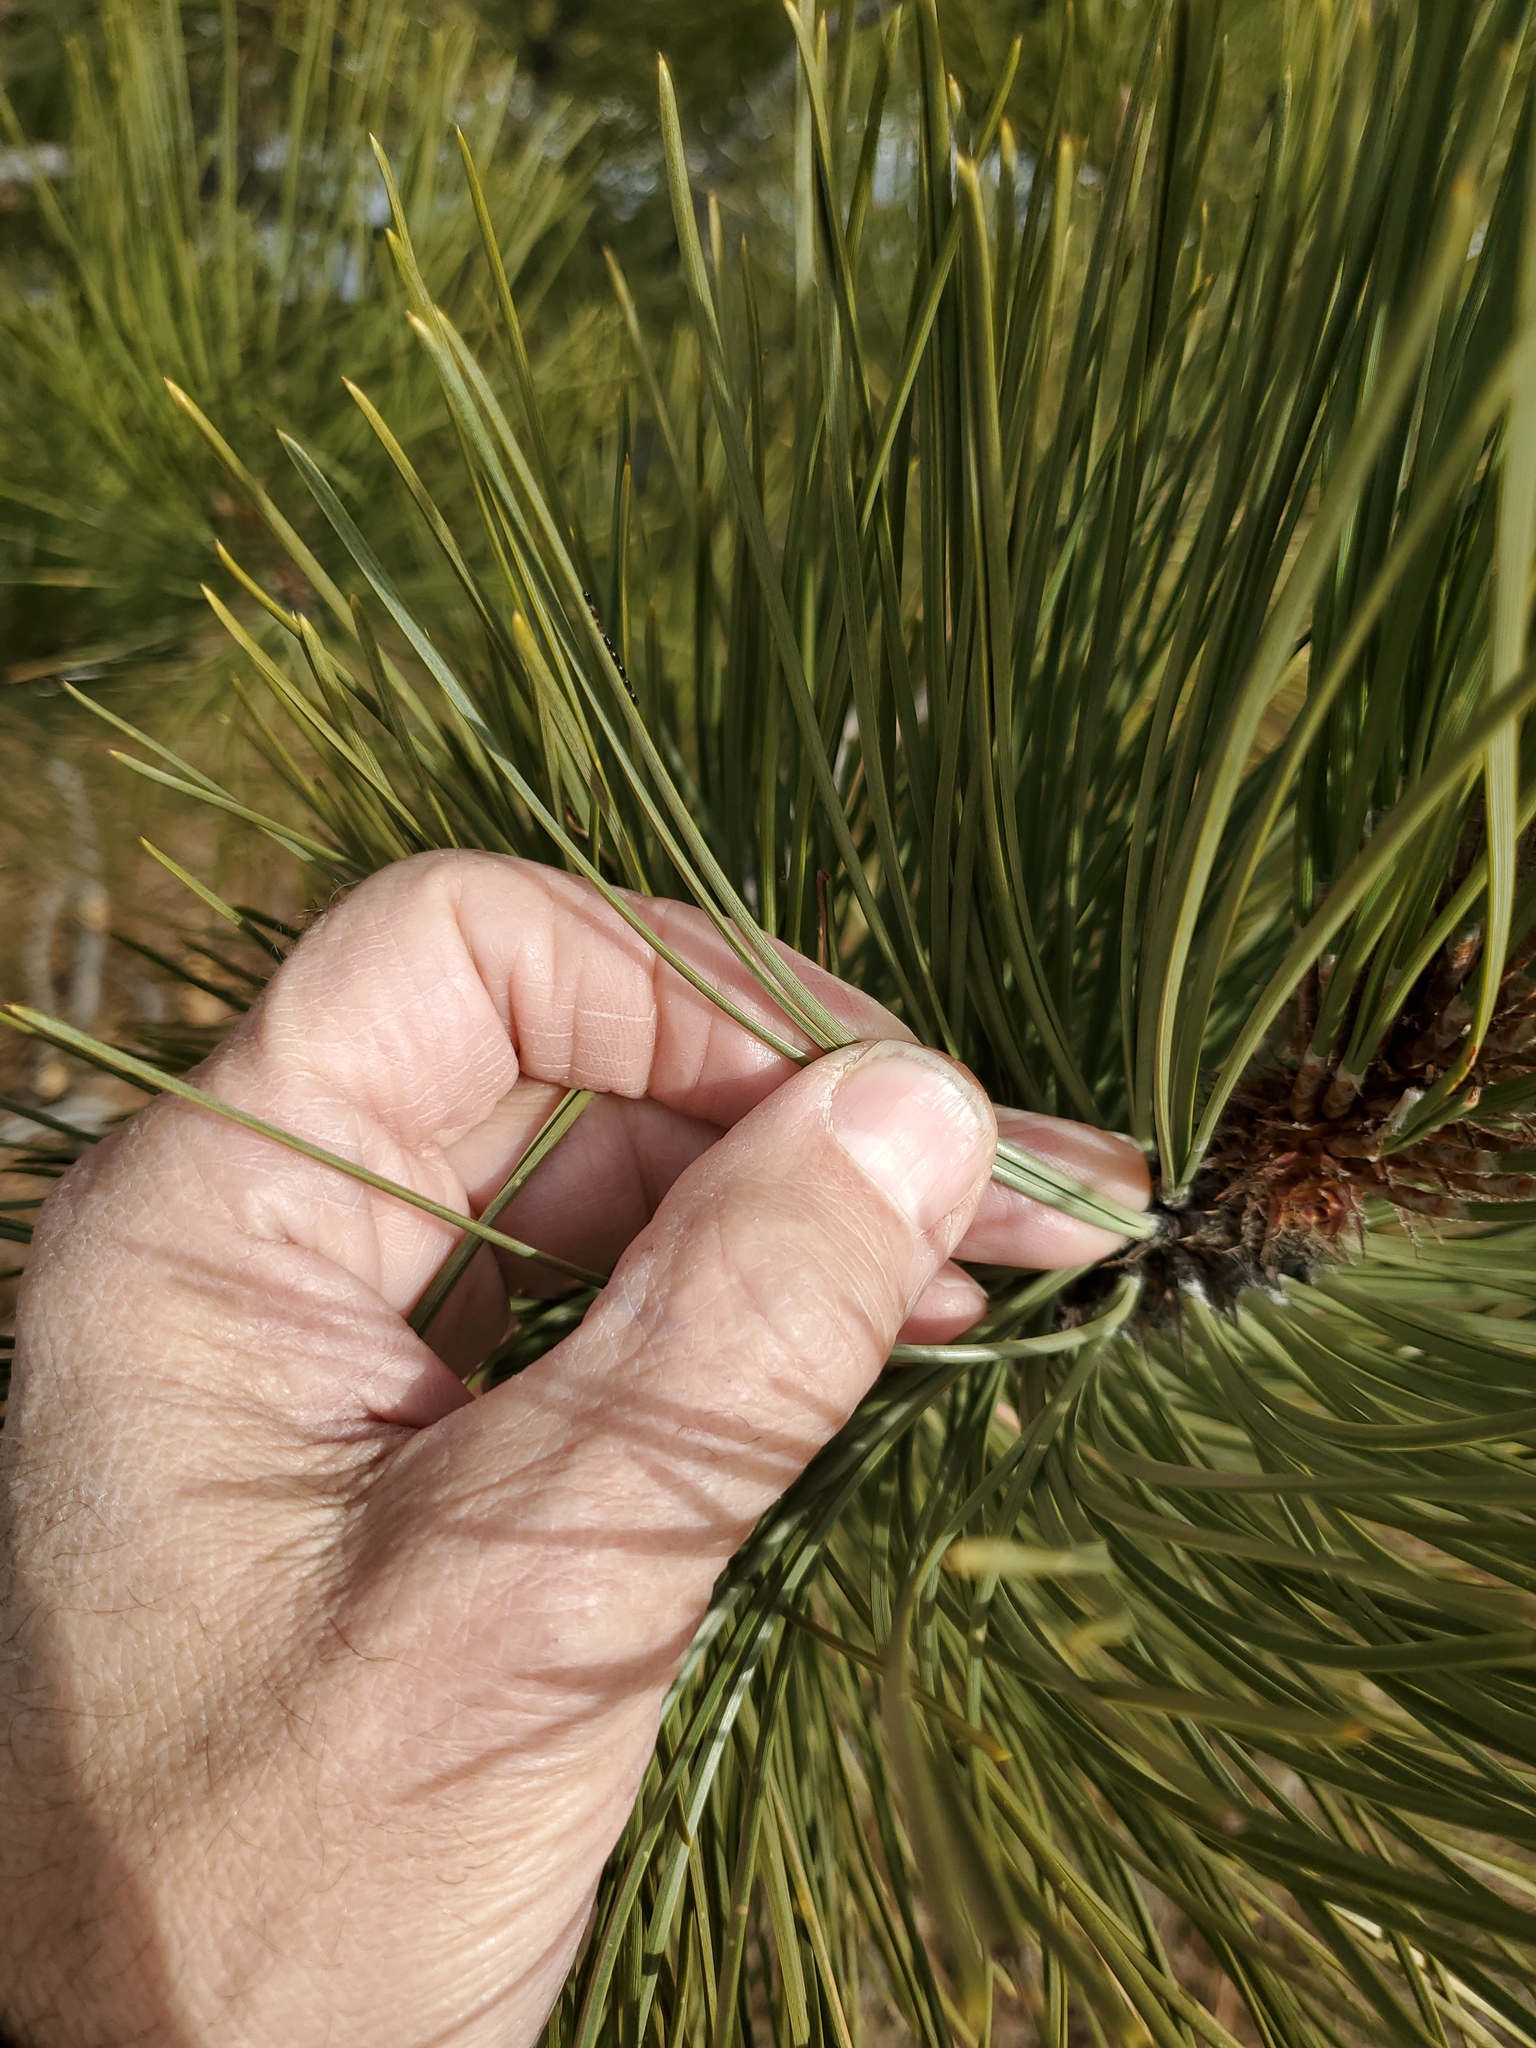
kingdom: Plantae
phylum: Tracheophyta
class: Pinopsida
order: Pinales
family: Pinaceae
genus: Pinus
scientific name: Pinus ponderosa
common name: Western yellow-pine
